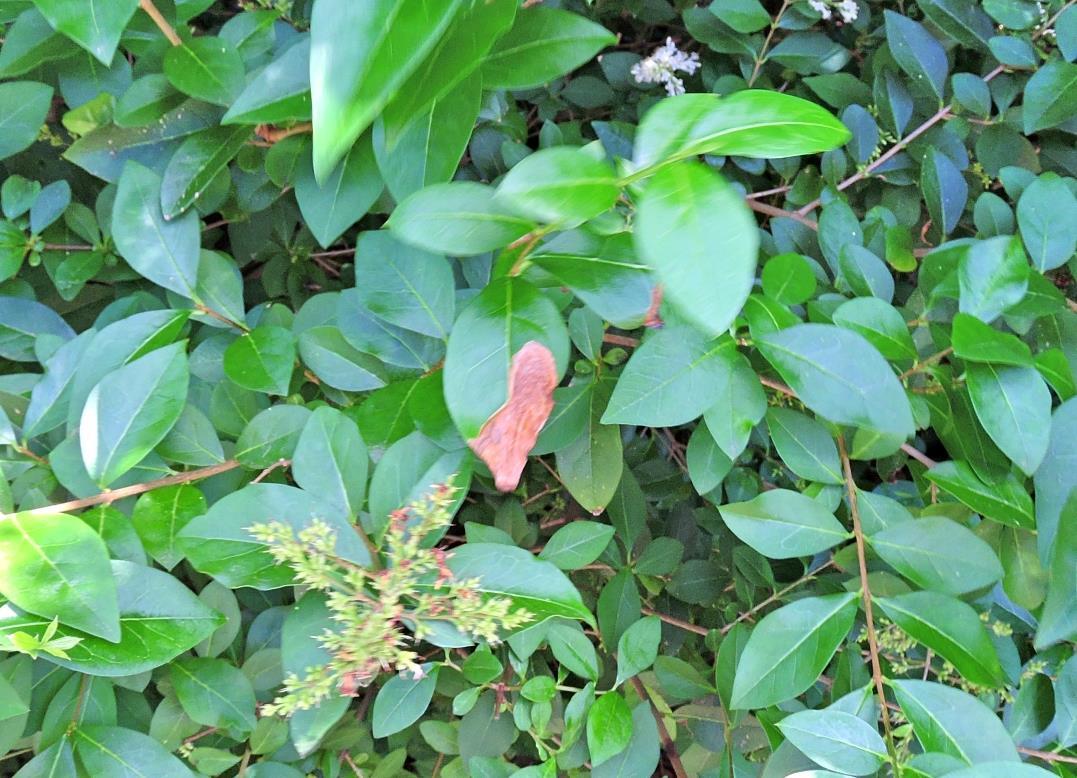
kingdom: Animalia
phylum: Arthropoda
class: Insecta
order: Lepidoptera
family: Gracillariidae
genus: Gracillaria
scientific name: Gracillaria syringella
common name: Common slender
